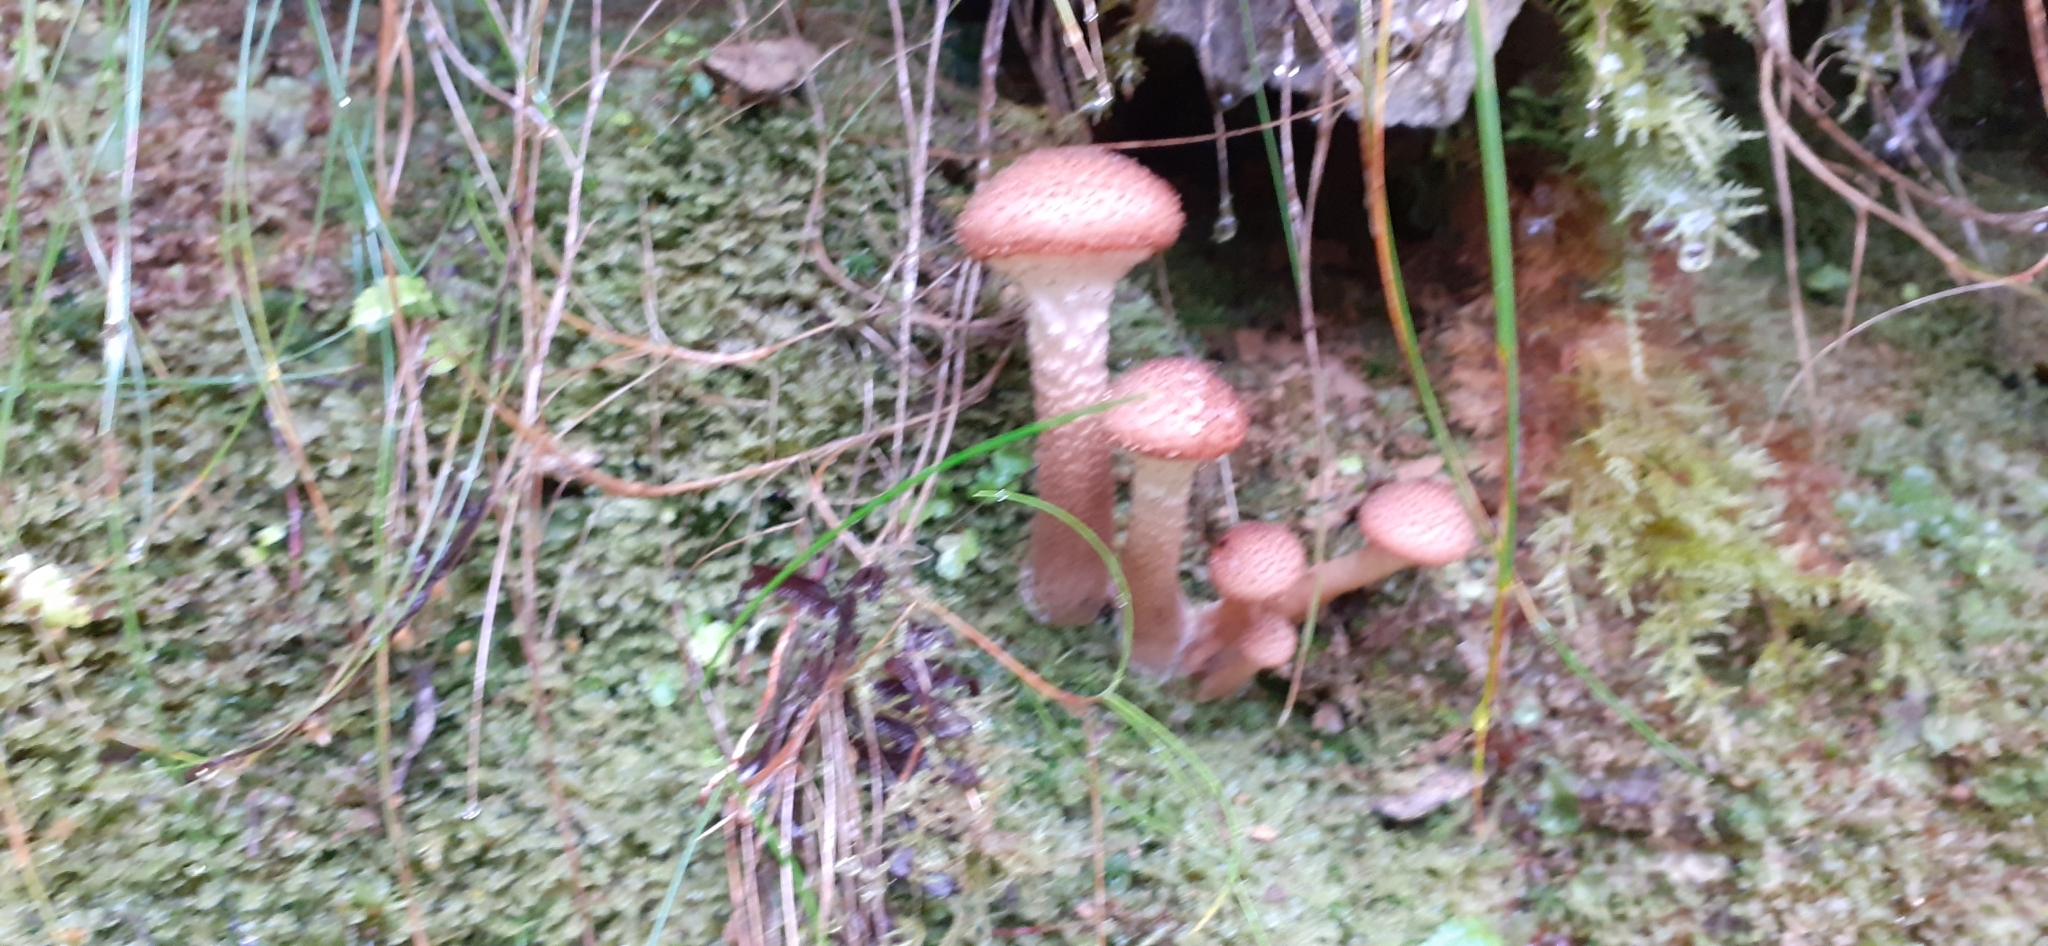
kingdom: Fungi
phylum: Basidiomycota
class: Agaricomycetes
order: Agaricales
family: Physalacriaceae
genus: Armillaria
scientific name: Armillaria mellea
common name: Honey fungus
